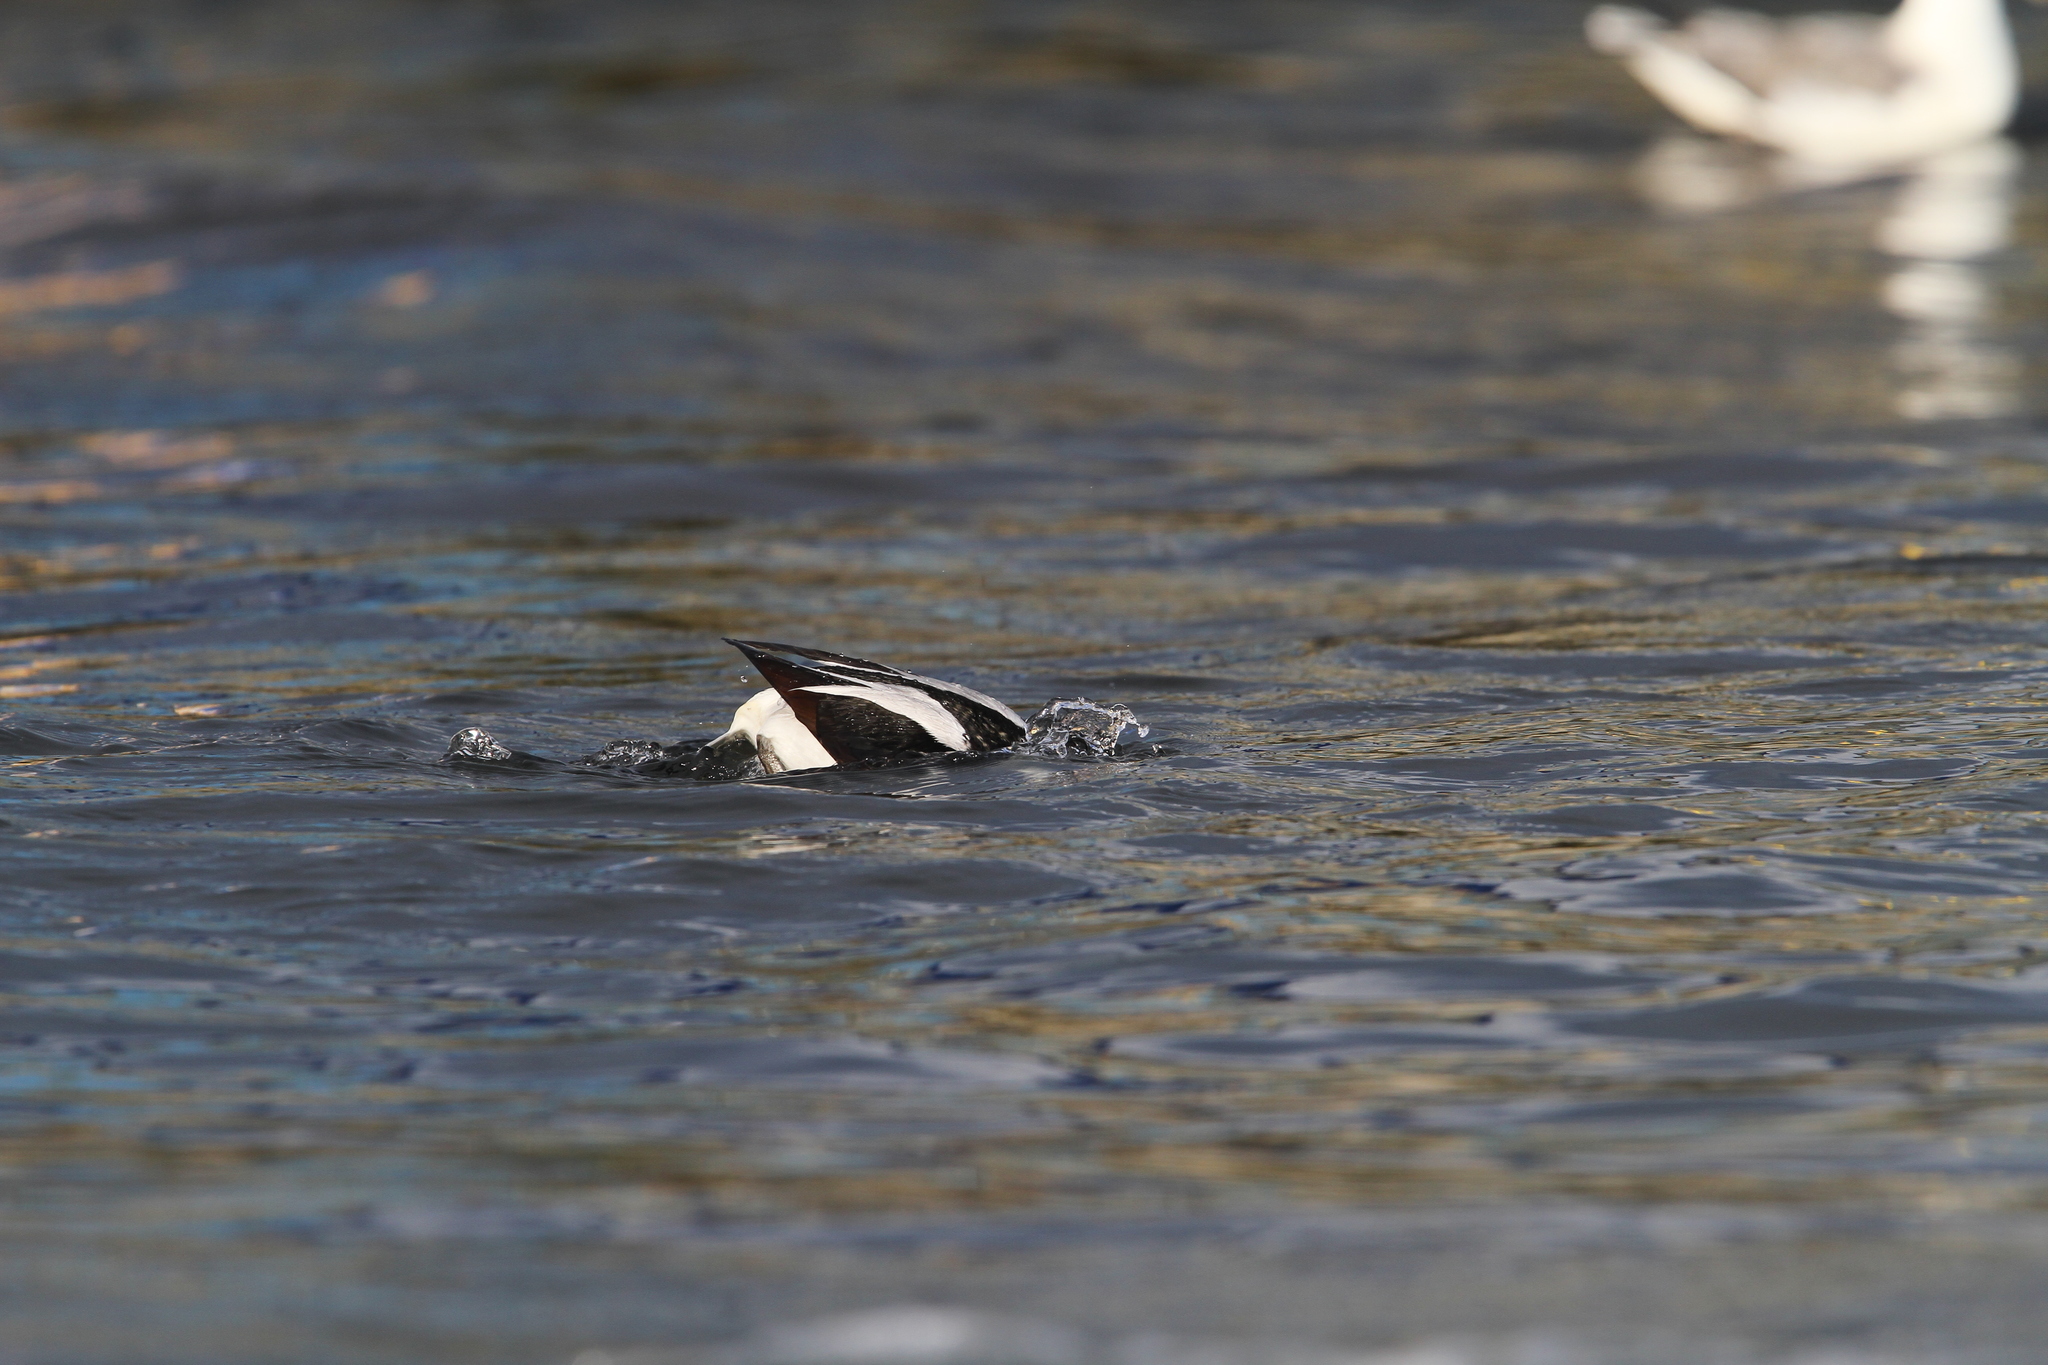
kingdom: Animalia
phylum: Chordata
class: Aves
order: Anseriformes
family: Anatidae
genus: Clangula
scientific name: Clangula hyemalis
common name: Long-tailed duck
